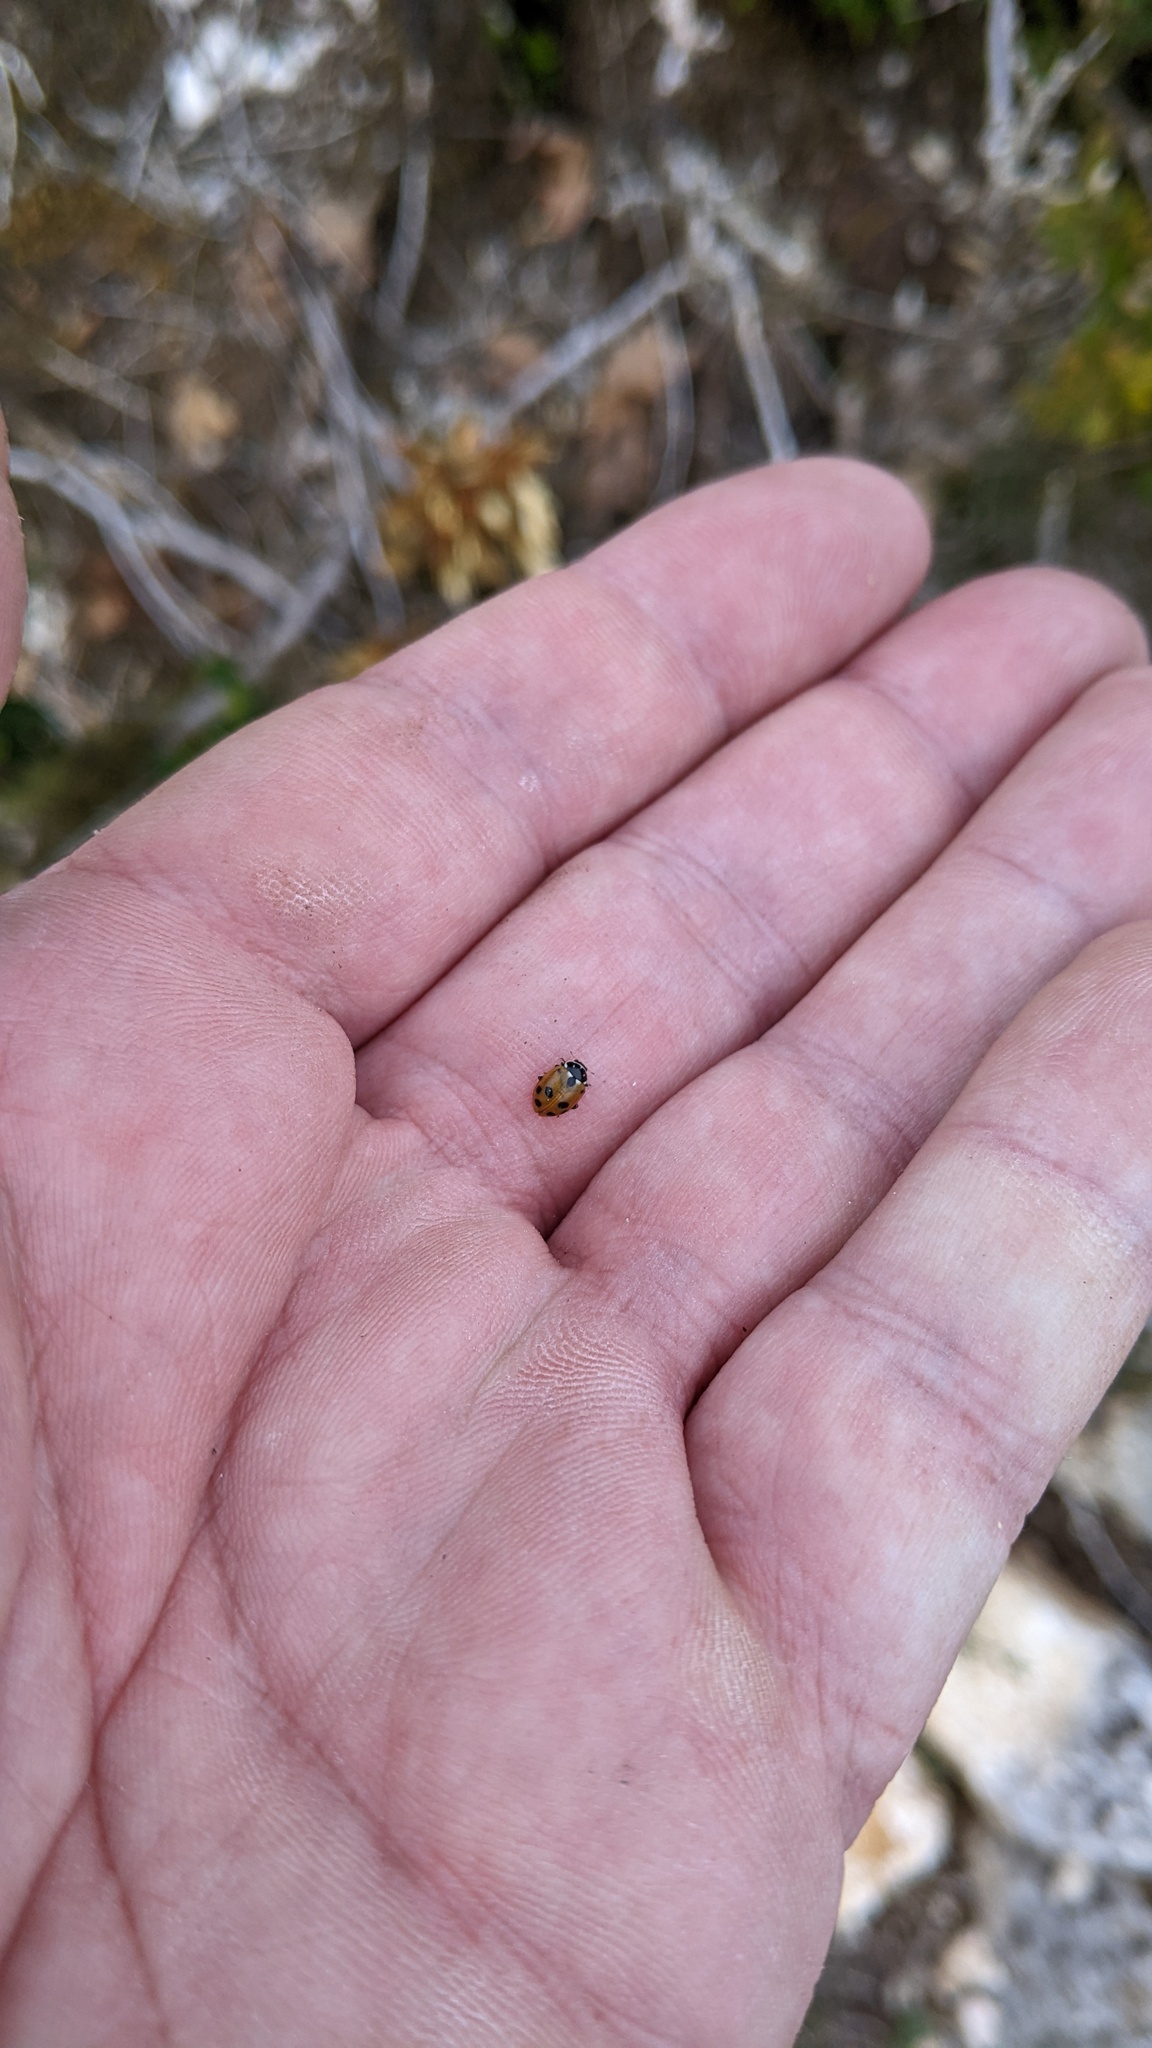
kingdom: Animalia
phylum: Arthropoda
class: Insecta
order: Coleoptera
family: Coccinellidae
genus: Hippodamia
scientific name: Hippodamia variegata
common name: Ladybird beetle
